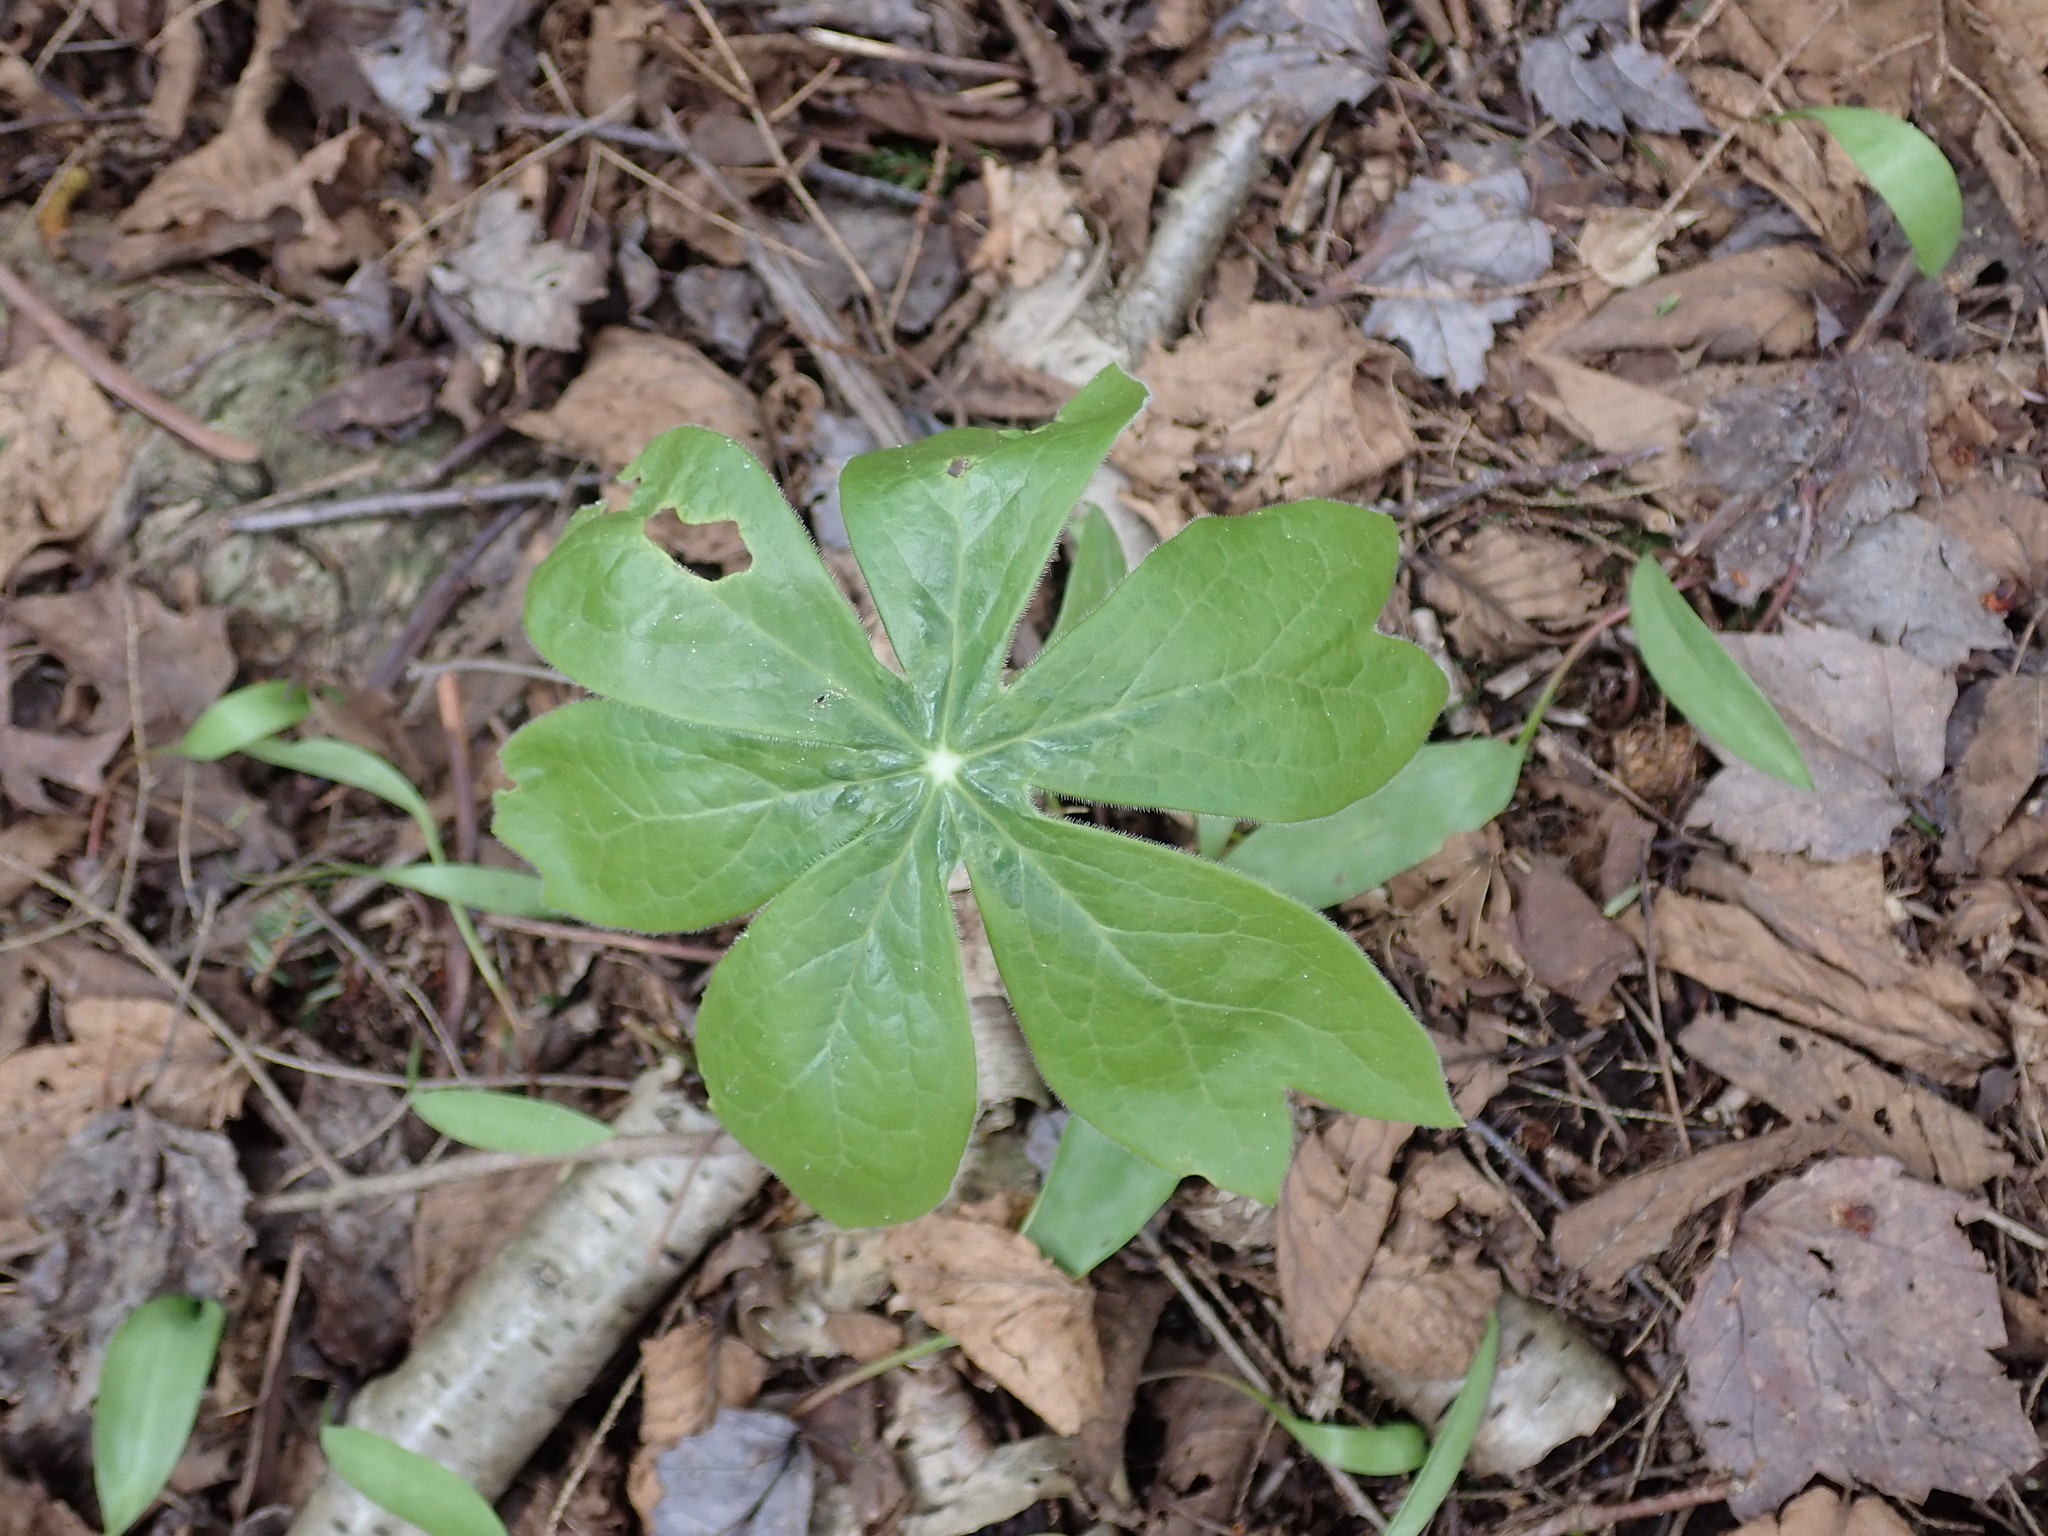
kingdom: Plantae
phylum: Tracheophyta
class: Magnoliopsida
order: Ranunculales
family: Berberidaceae
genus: Podophyllum
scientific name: Podophyllum peltatum
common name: Wild mandrake
